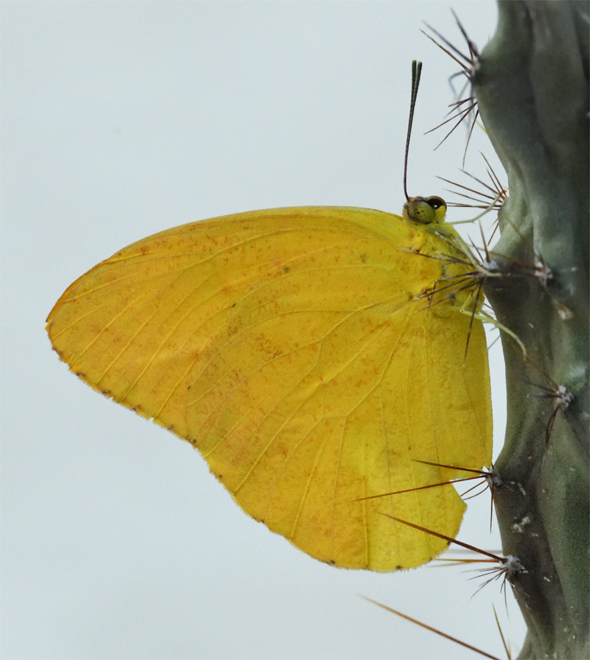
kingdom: Animalia
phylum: Arthropoda
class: Insecta
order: Lepidoptera
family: Pieridae
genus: Phoebis
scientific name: Phoebis agarithe
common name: Large orange sulphur
